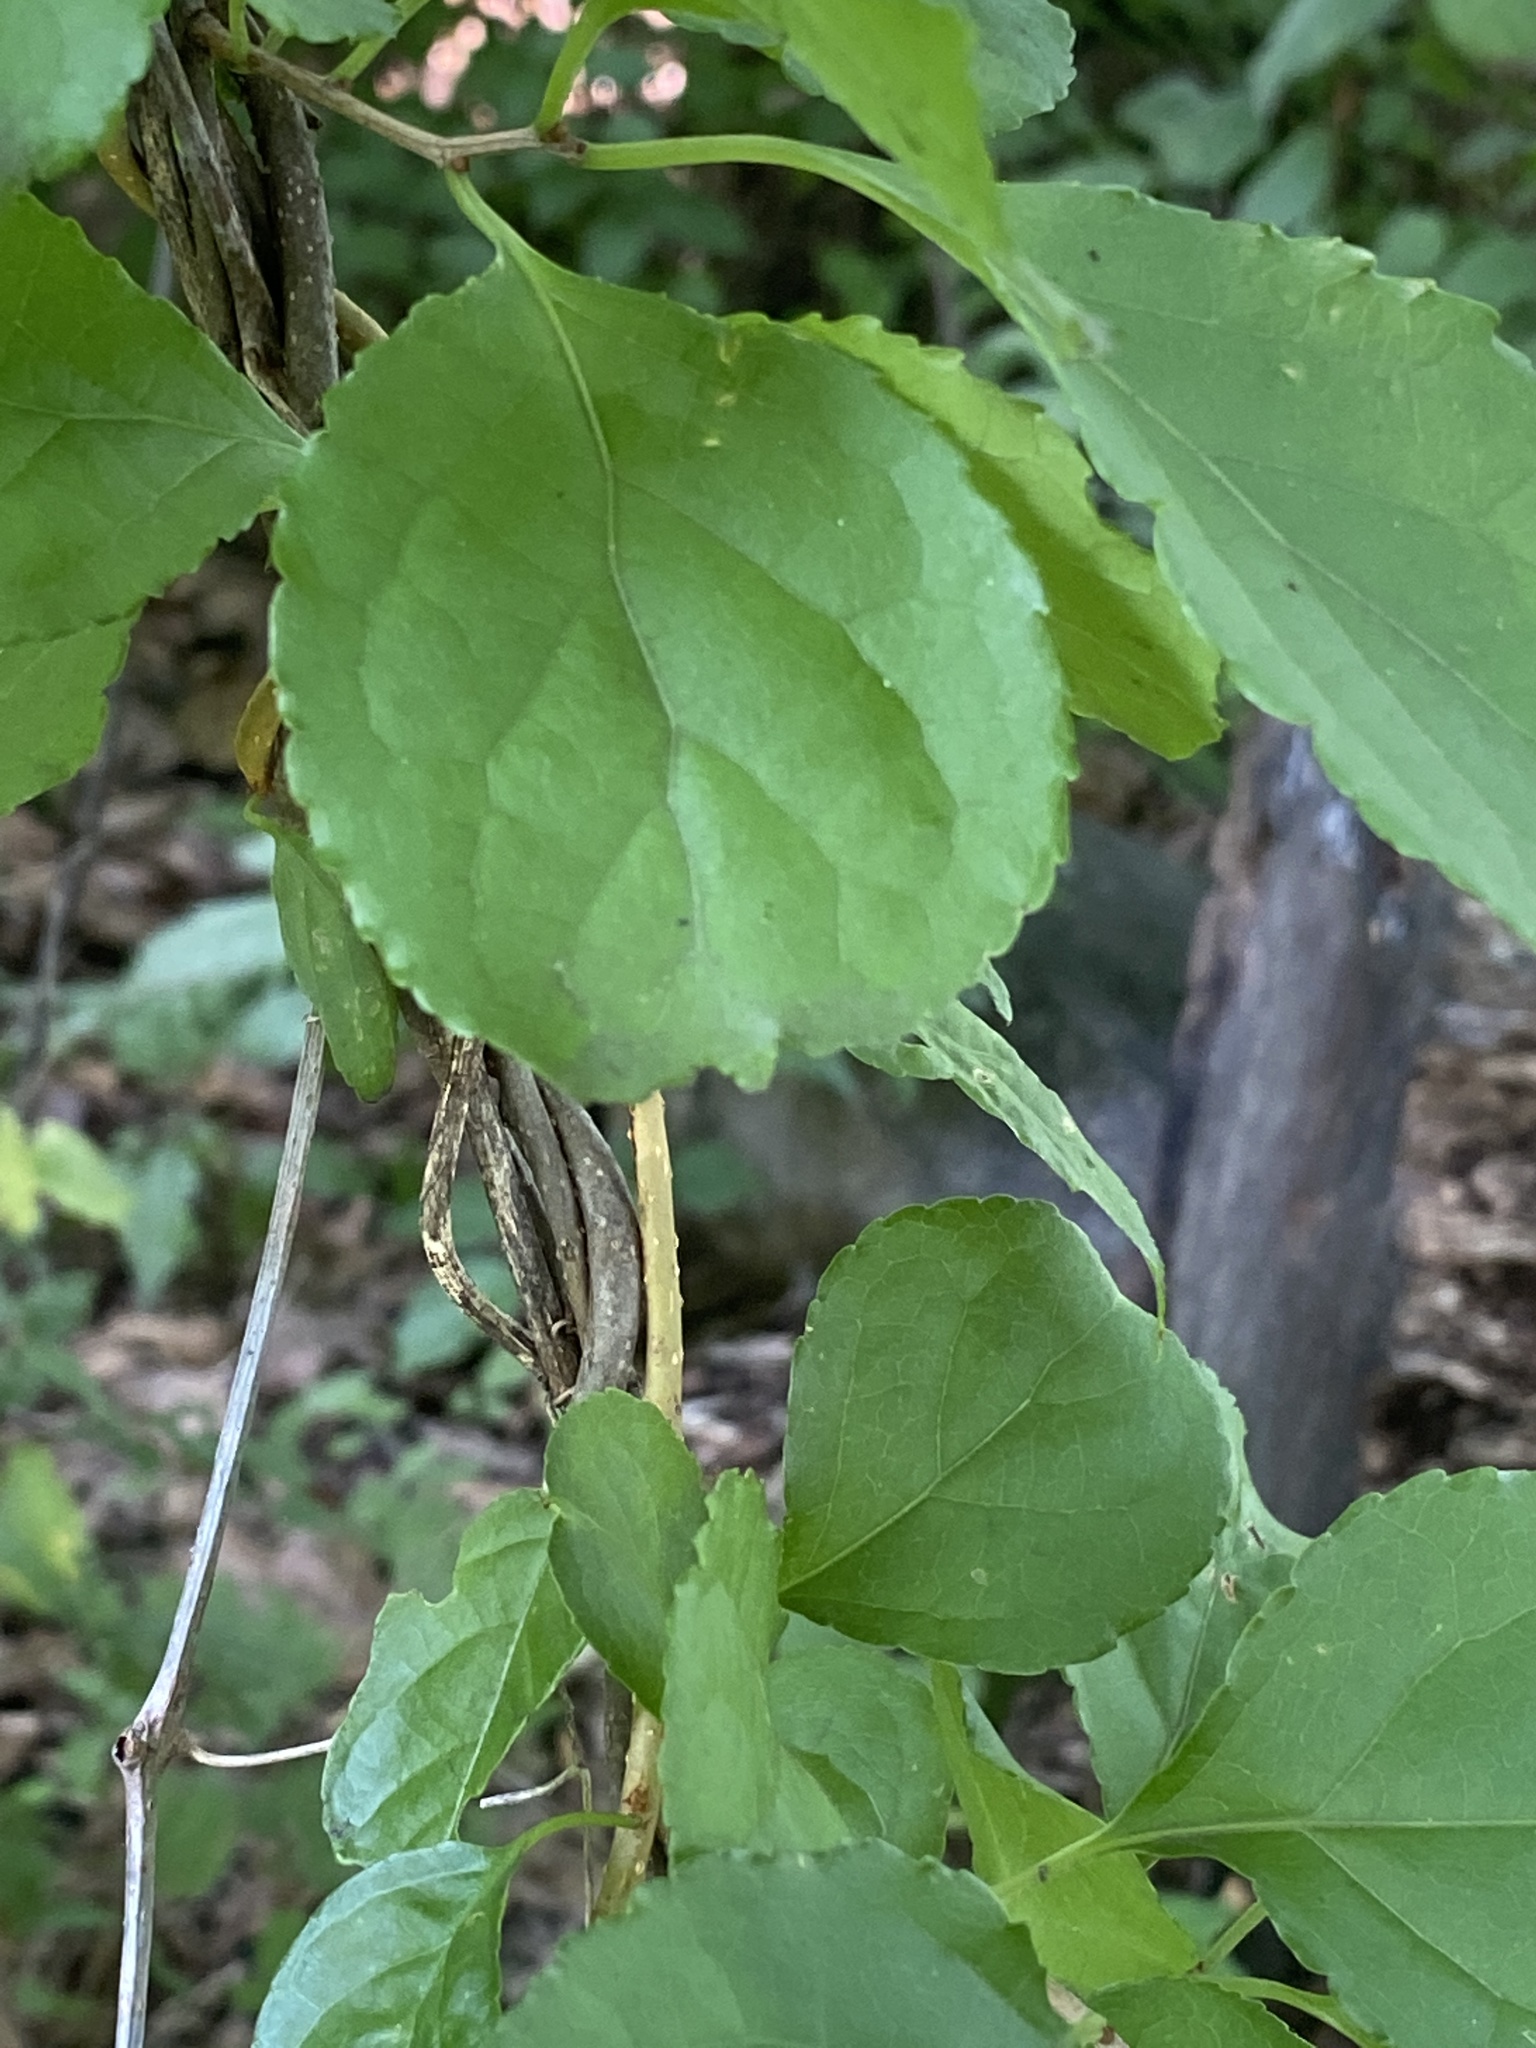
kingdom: Plantae
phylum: Tracheophyta
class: Magnoliopsida
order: Celastrales
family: Celastraceae
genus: Celastrus
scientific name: Celastrus orbiculatus
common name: Oriental bittersweet
